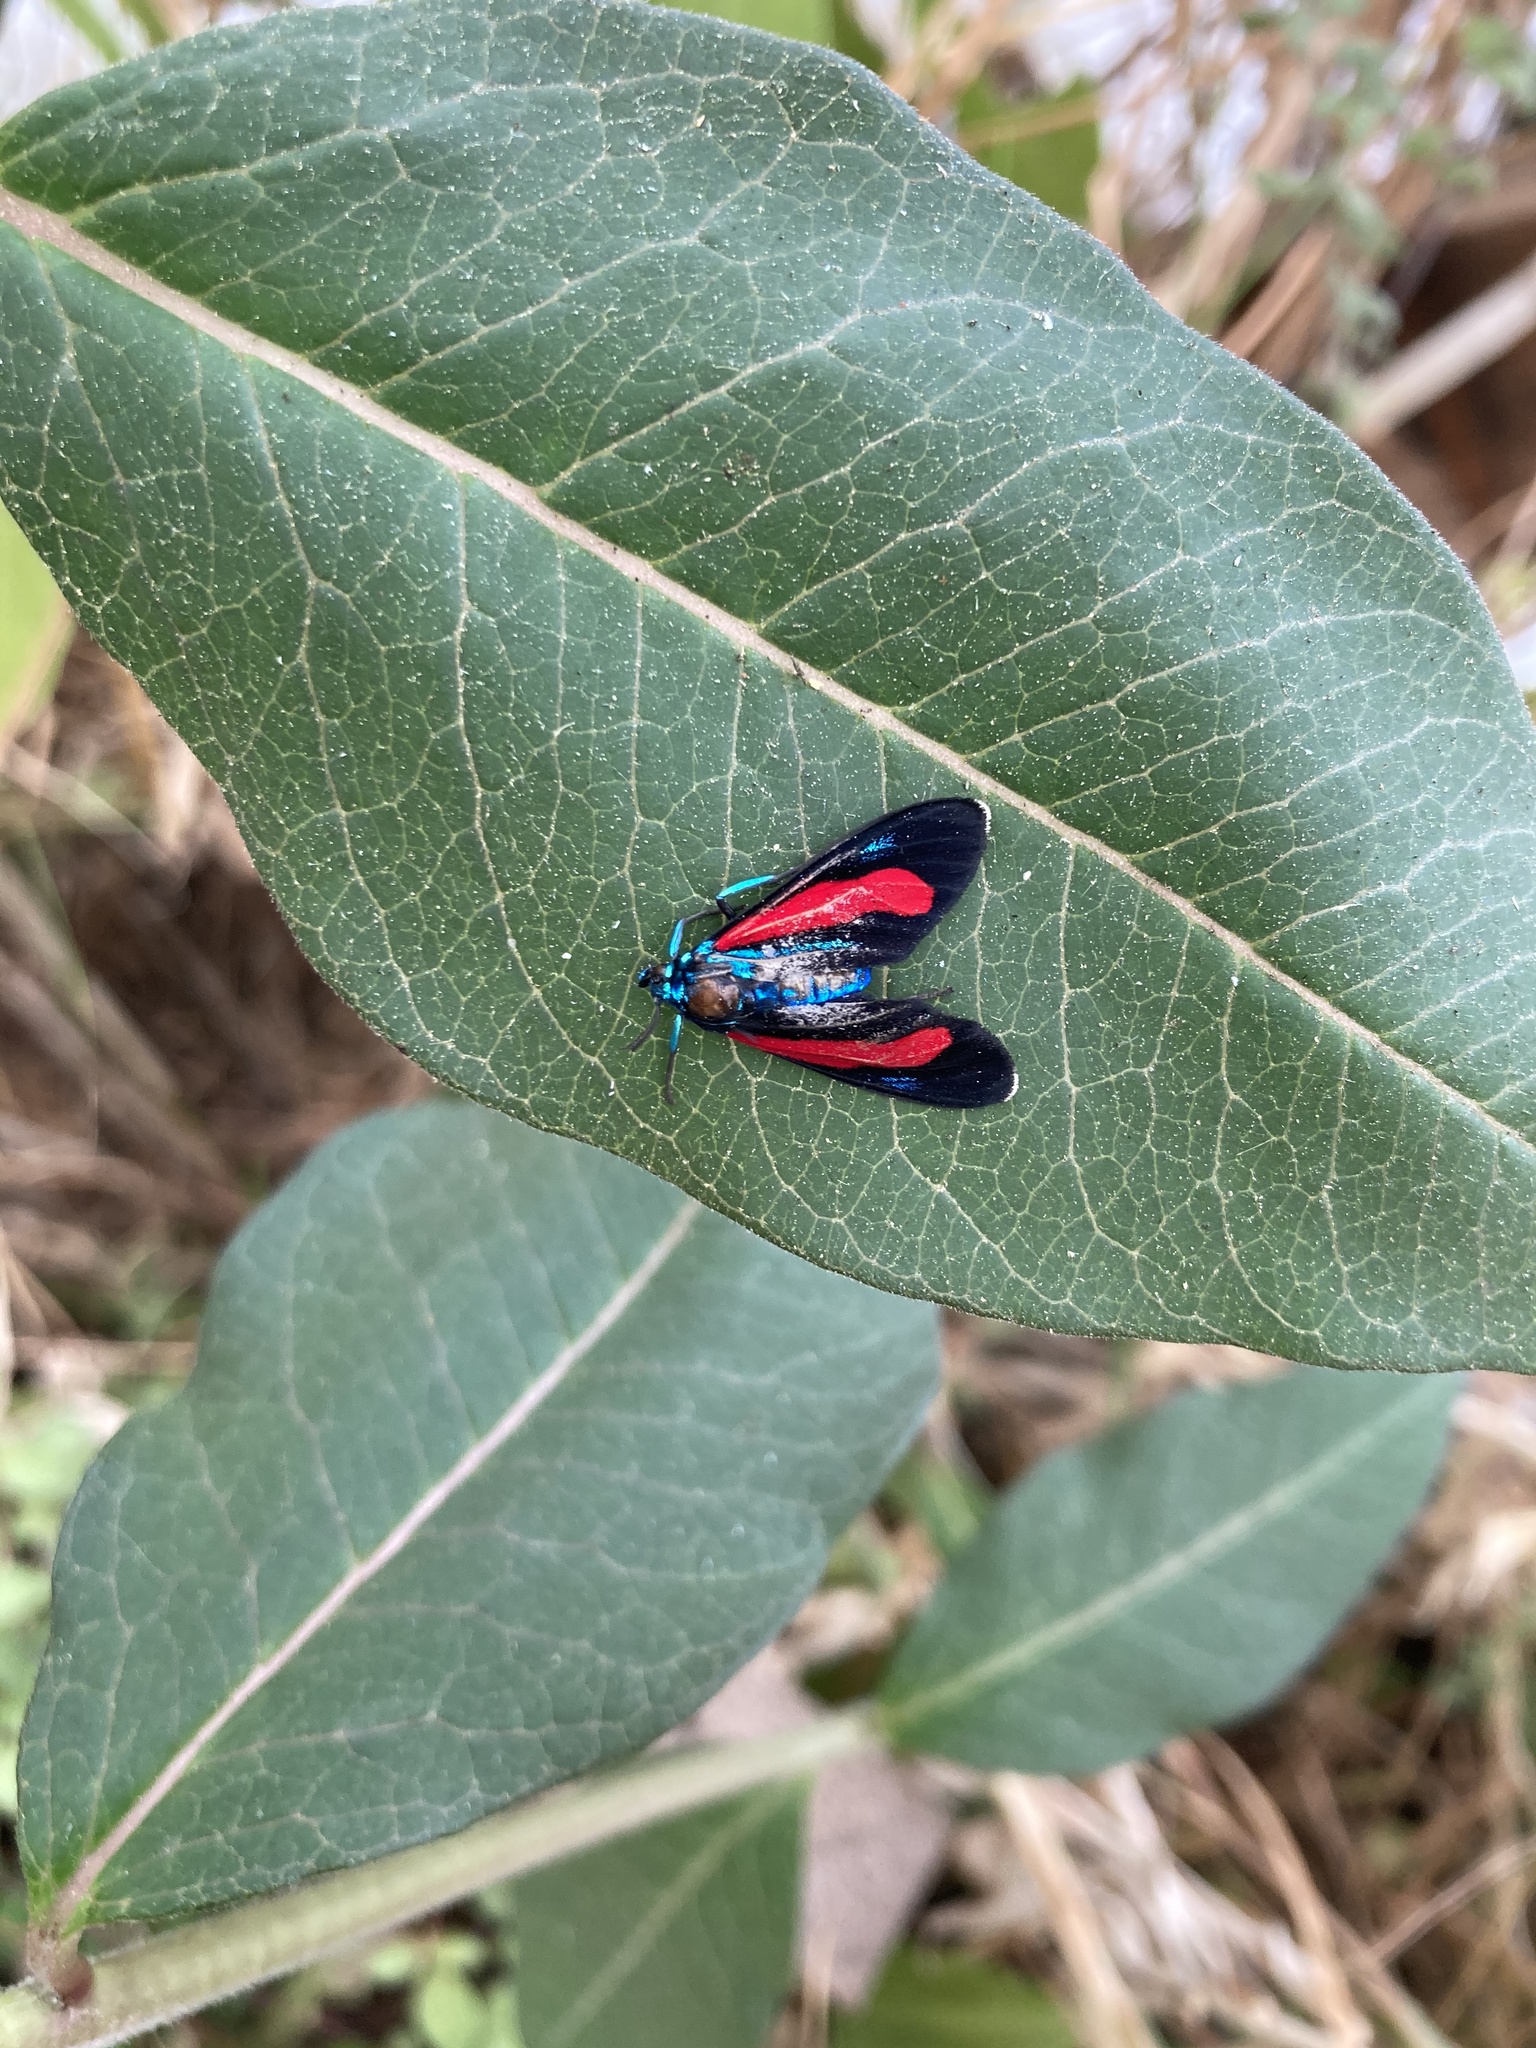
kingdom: Animalia
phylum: Arthropoda
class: Insecta
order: Lepidoptera
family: Erebidae
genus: Cyanopepla
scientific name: Cyanopepla bella
